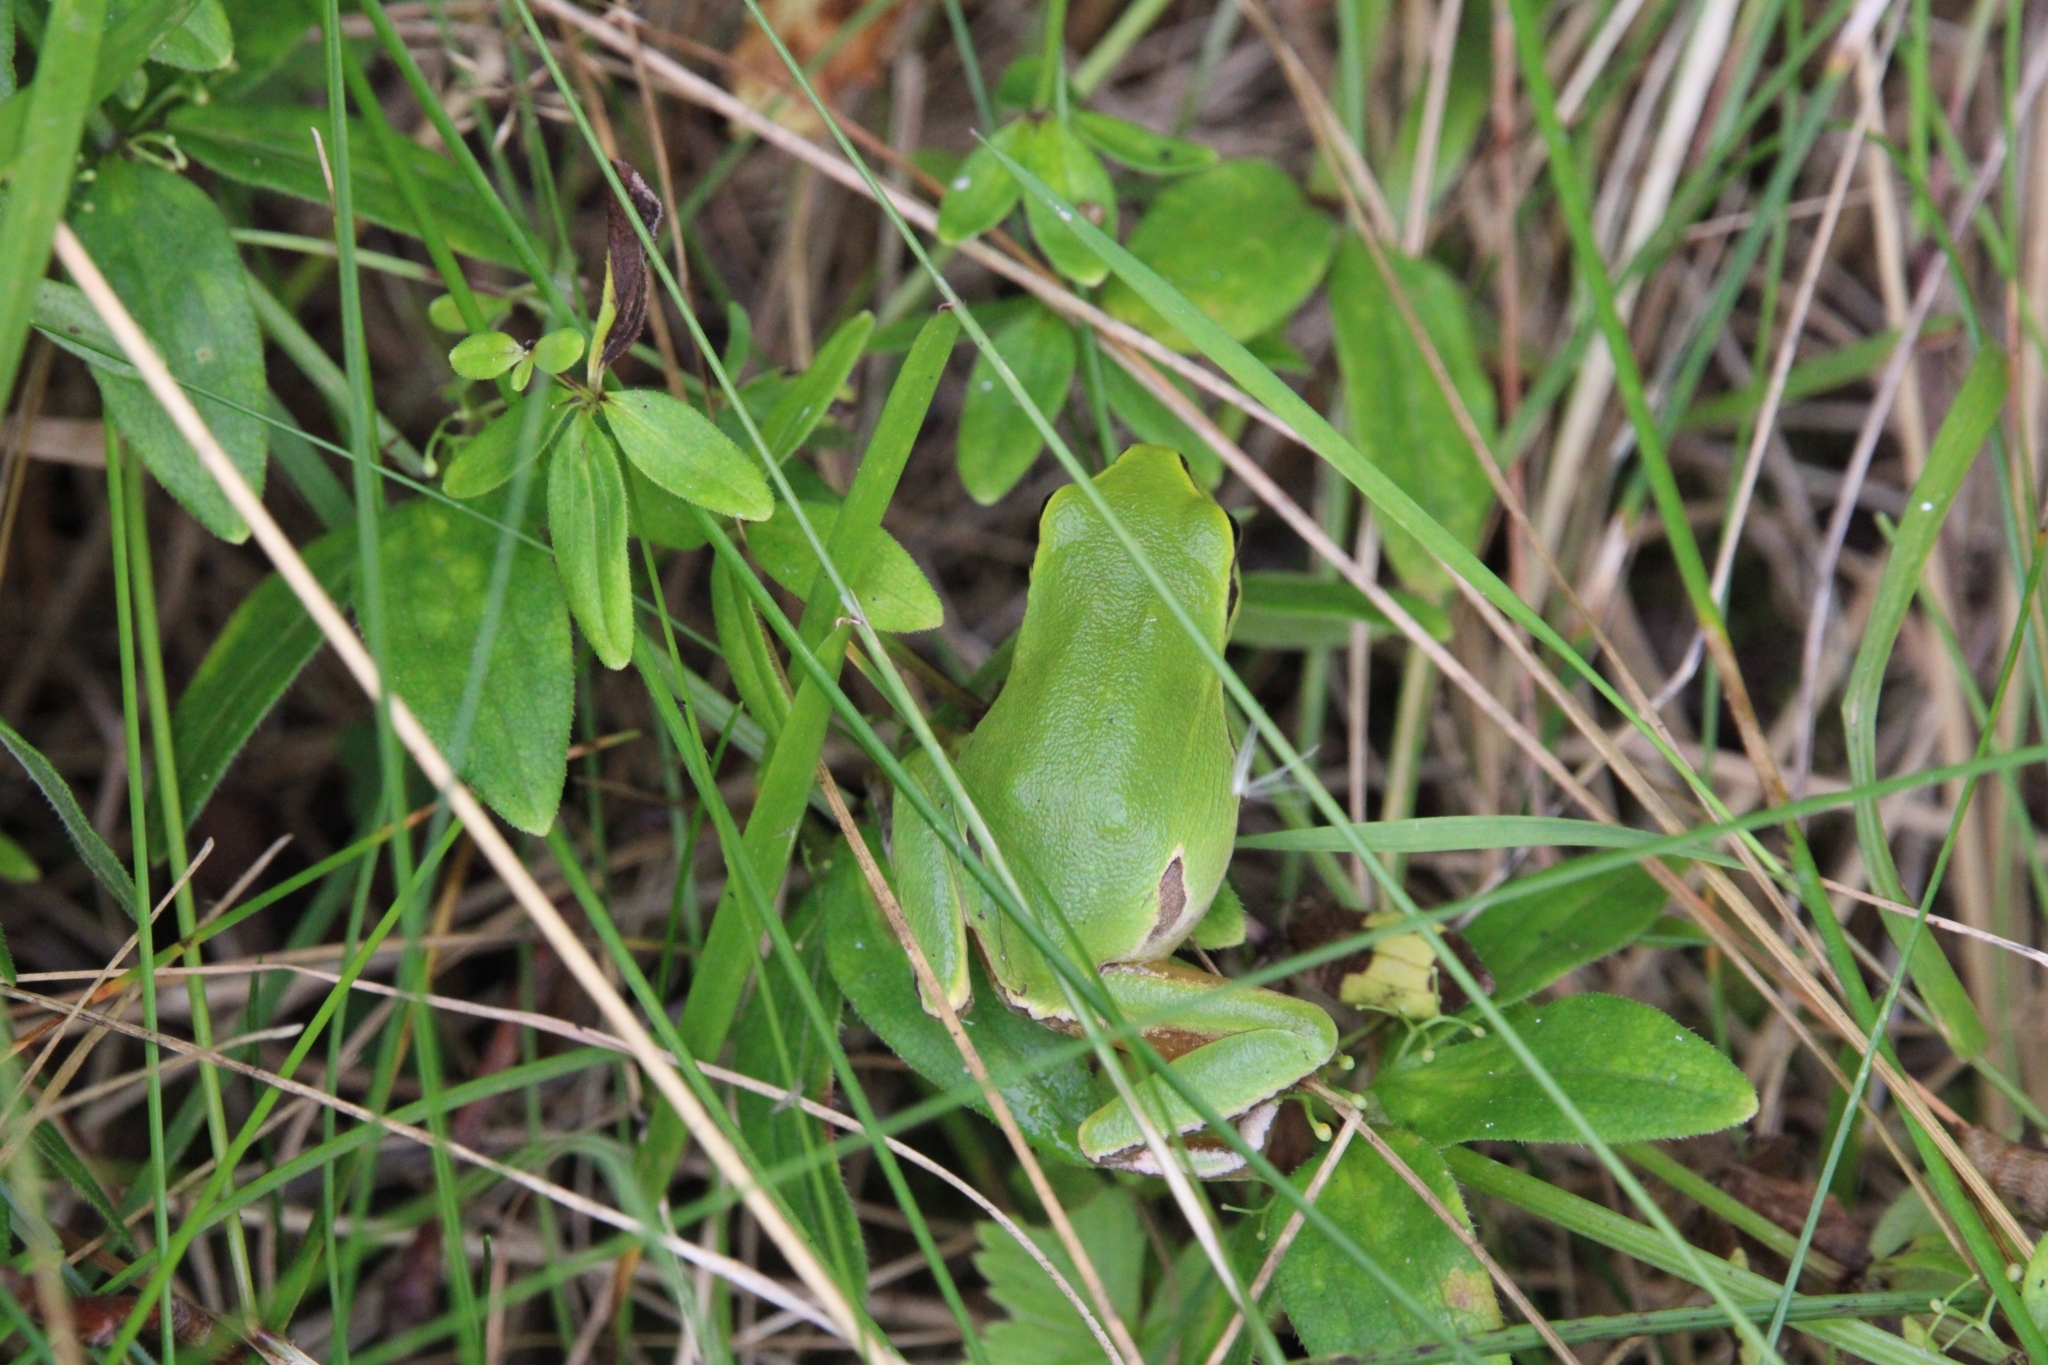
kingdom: Animalia
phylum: Chordata
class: Amphibia
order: Anura
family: Hylidae
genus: Hyla
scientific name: Hyla orientalis
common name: Caucasian treefrog
